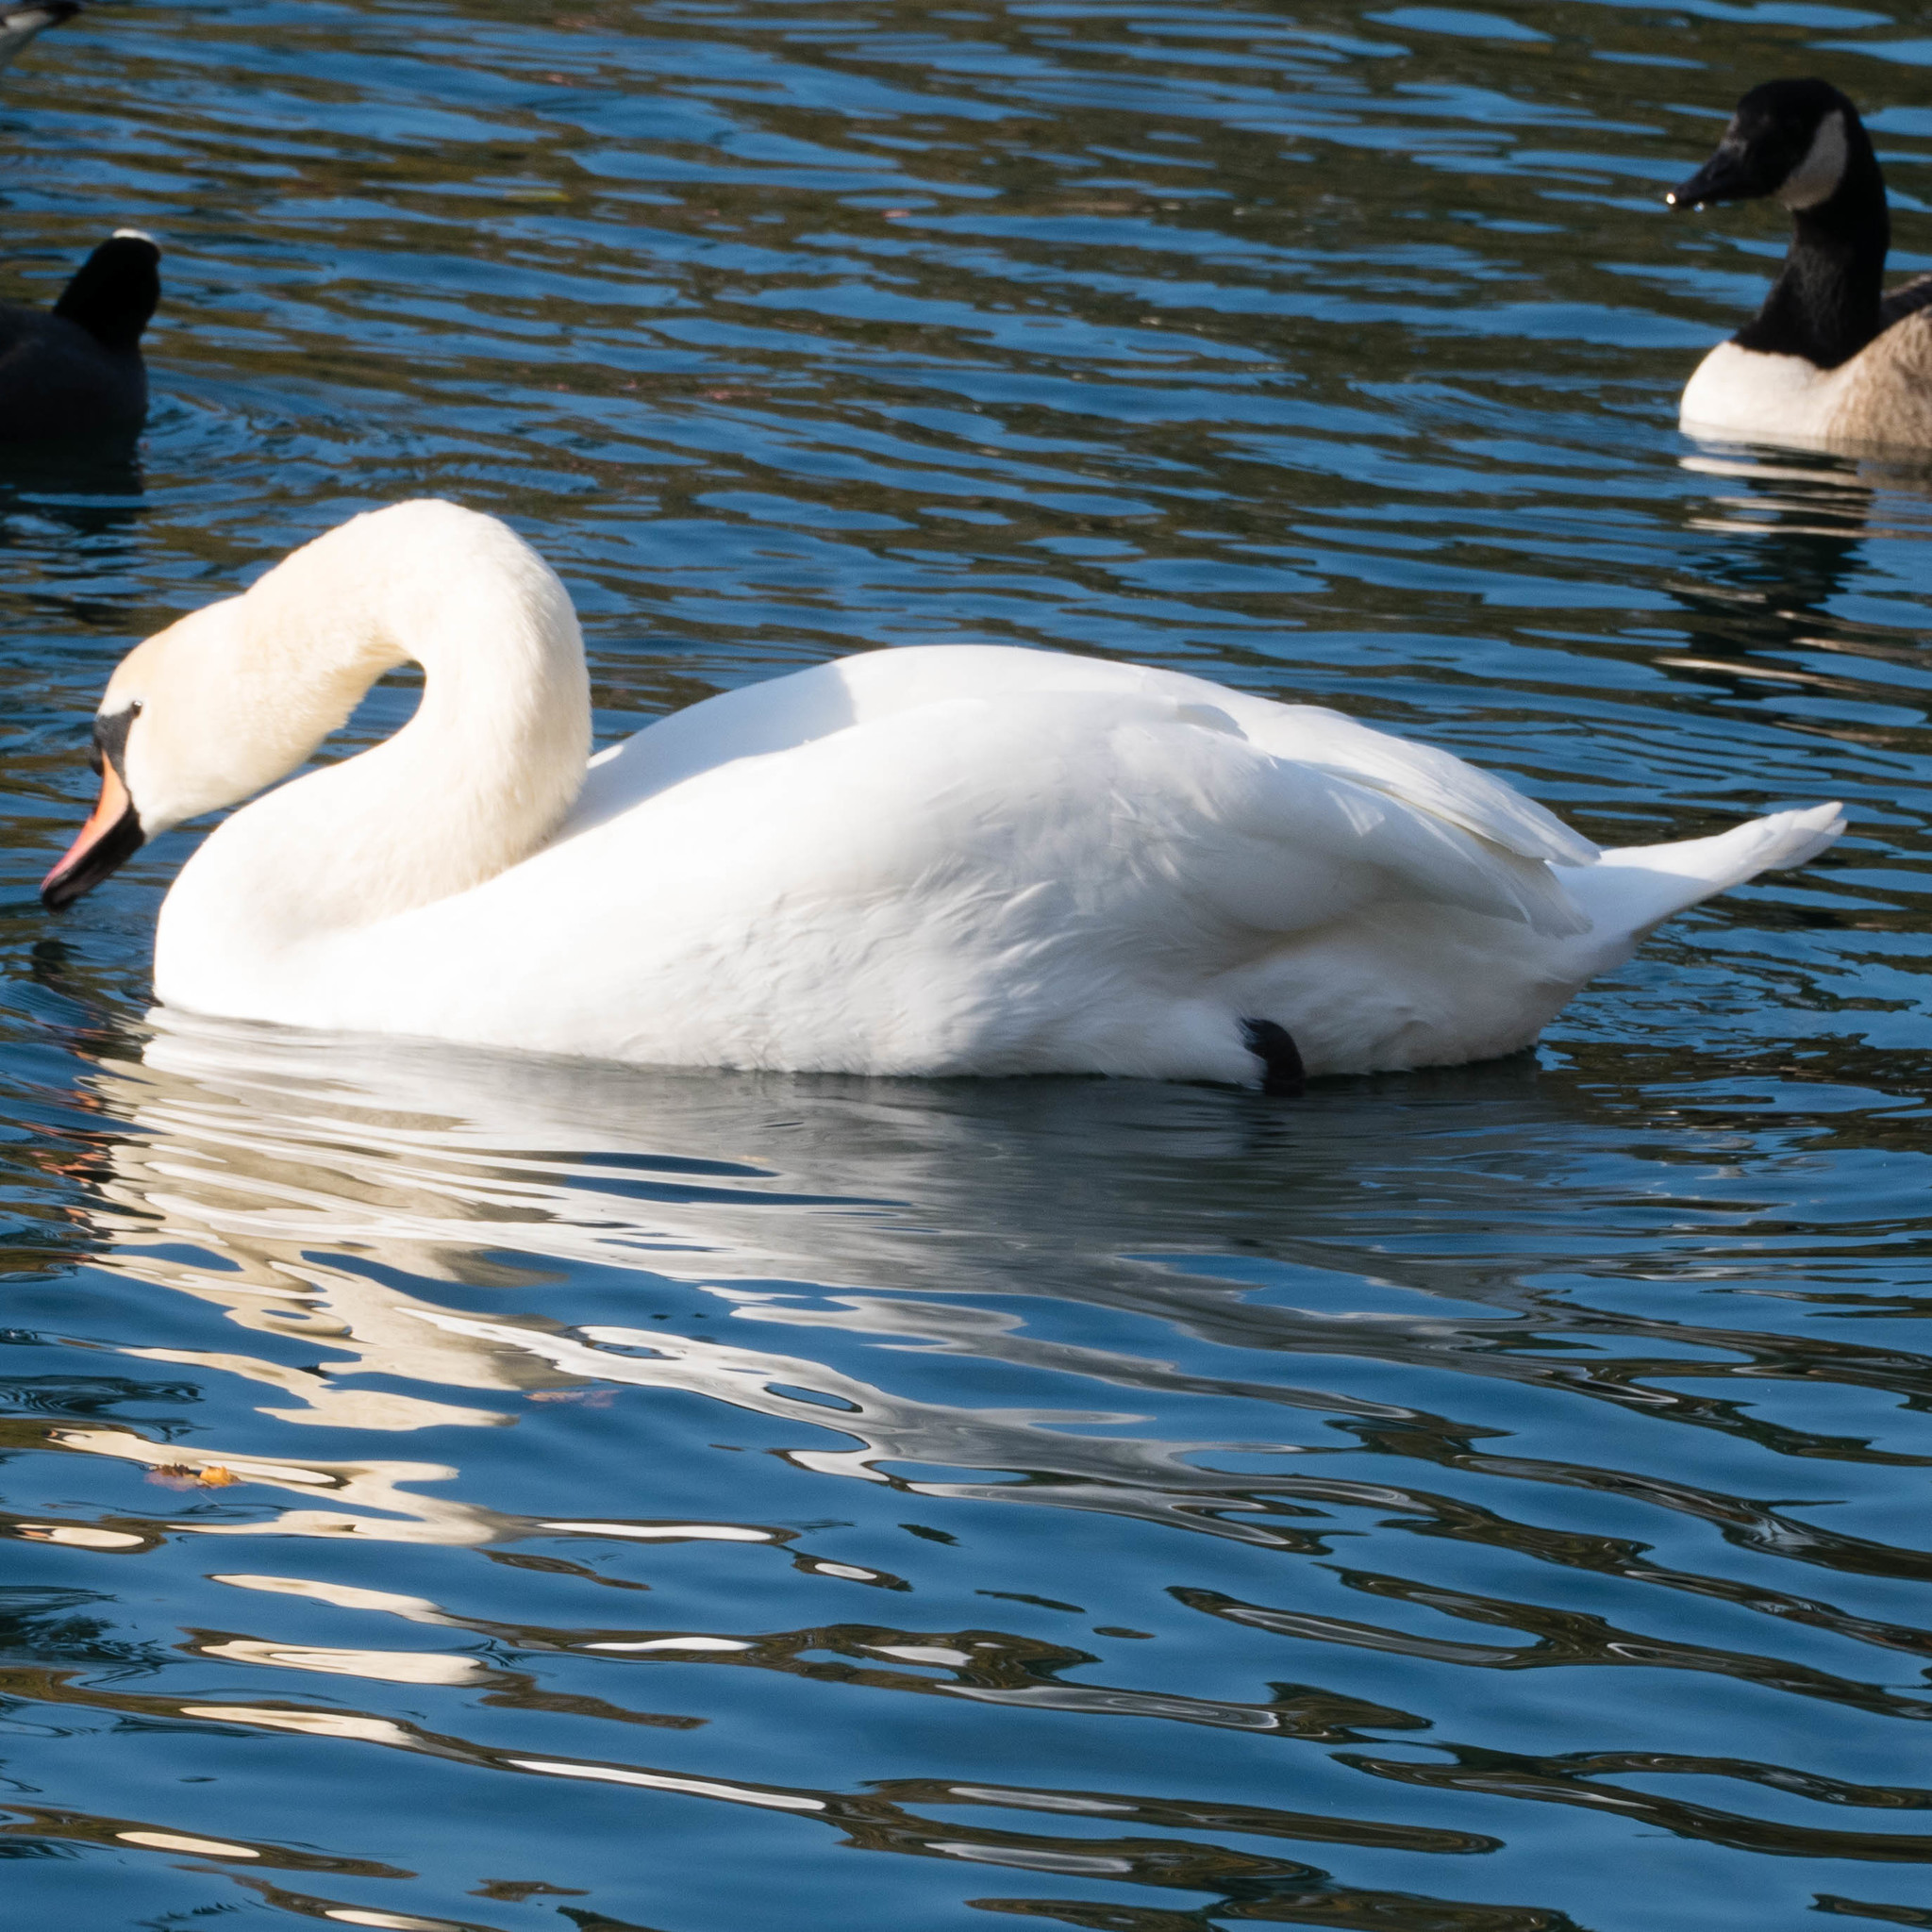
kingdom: Animalia
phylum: Chordata
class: Aves
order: Anseriformes
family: Anatidae
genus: Cygnus
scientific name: Cygnus olor
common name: Mute swan
